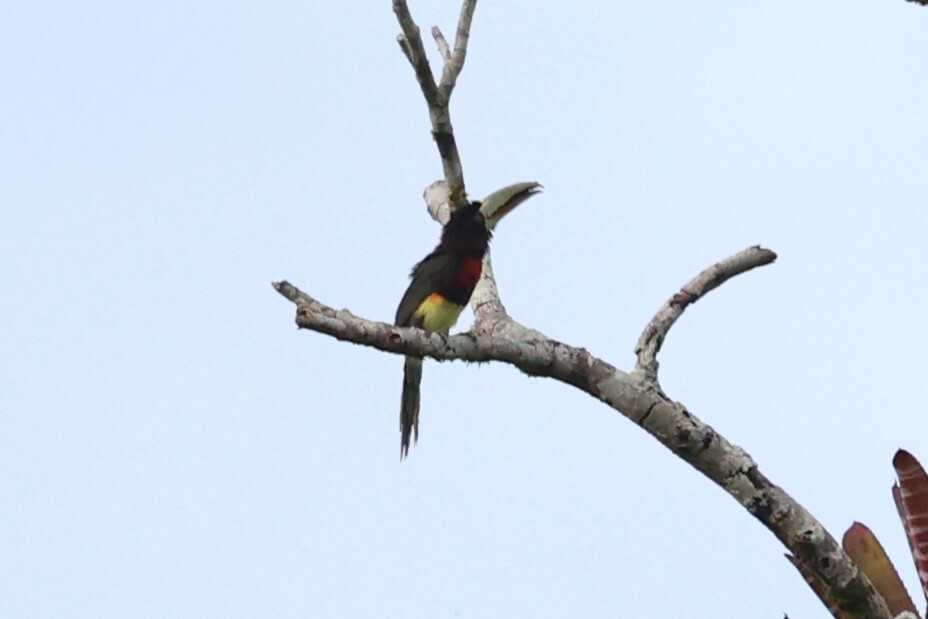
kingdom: Animalia
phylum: Chordata
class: Aves
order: Piciformes
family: Ramphastidae
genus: Pteroglossus
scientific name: Pteroglossus azara
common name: Ivory-billed aracari
